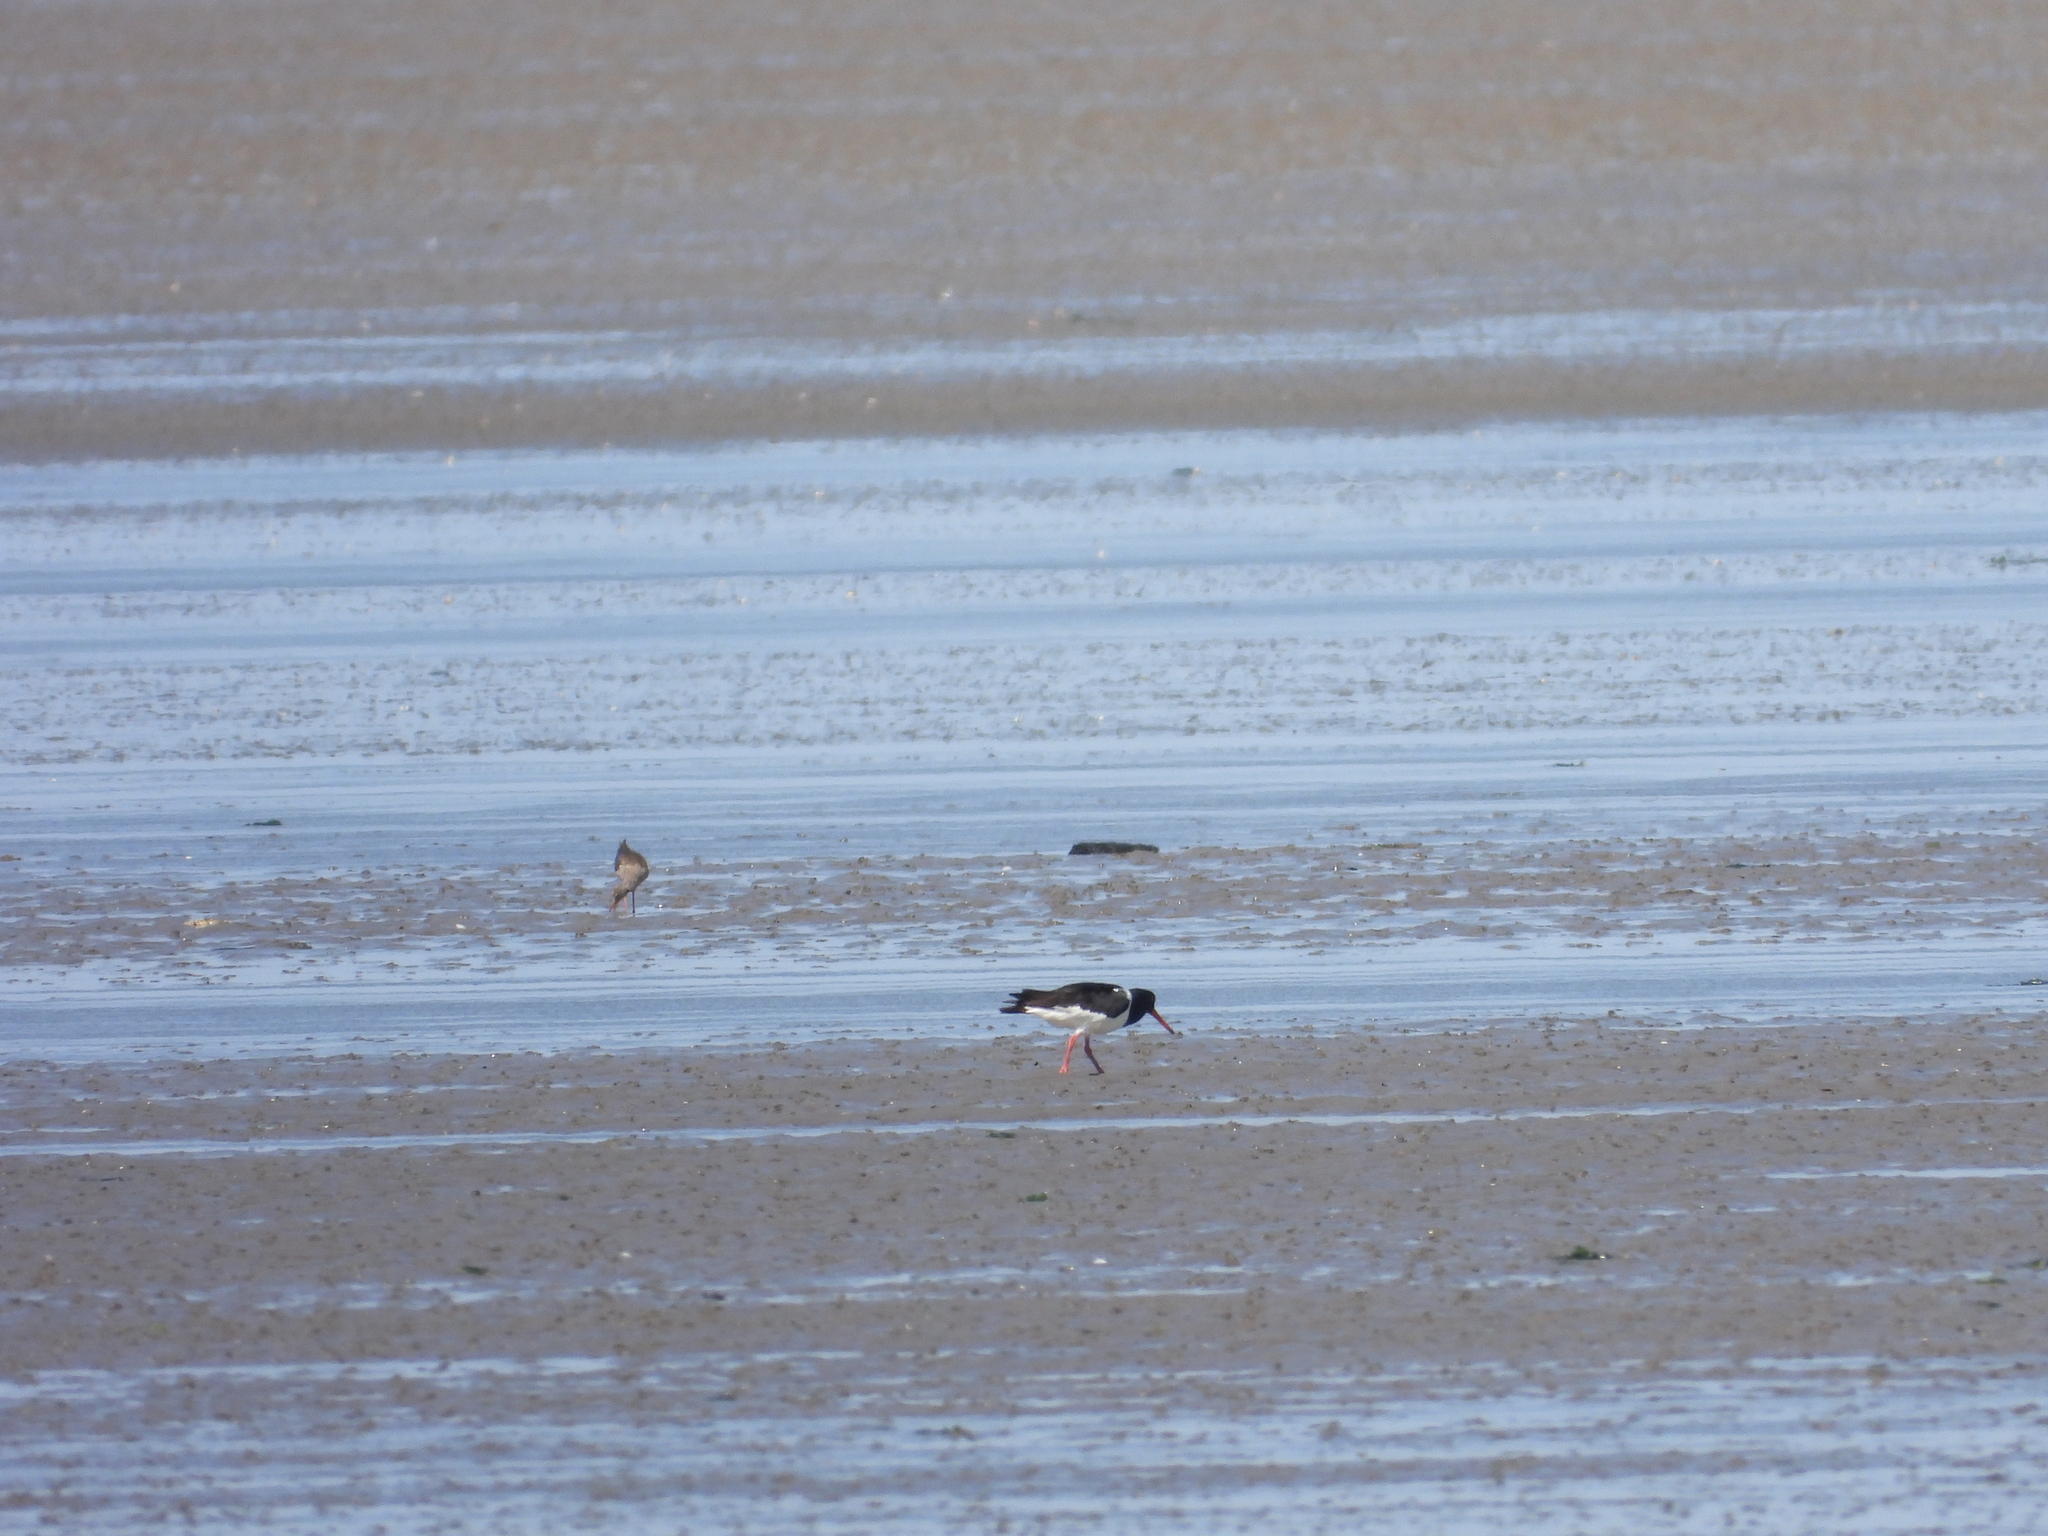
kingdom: Animalia
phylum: Chordata
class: Aves
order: Charadriiformes
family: Haematopodidae
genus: Haematopus
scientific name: Haematopus ostralegus
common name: Eurasian oystercatcher
